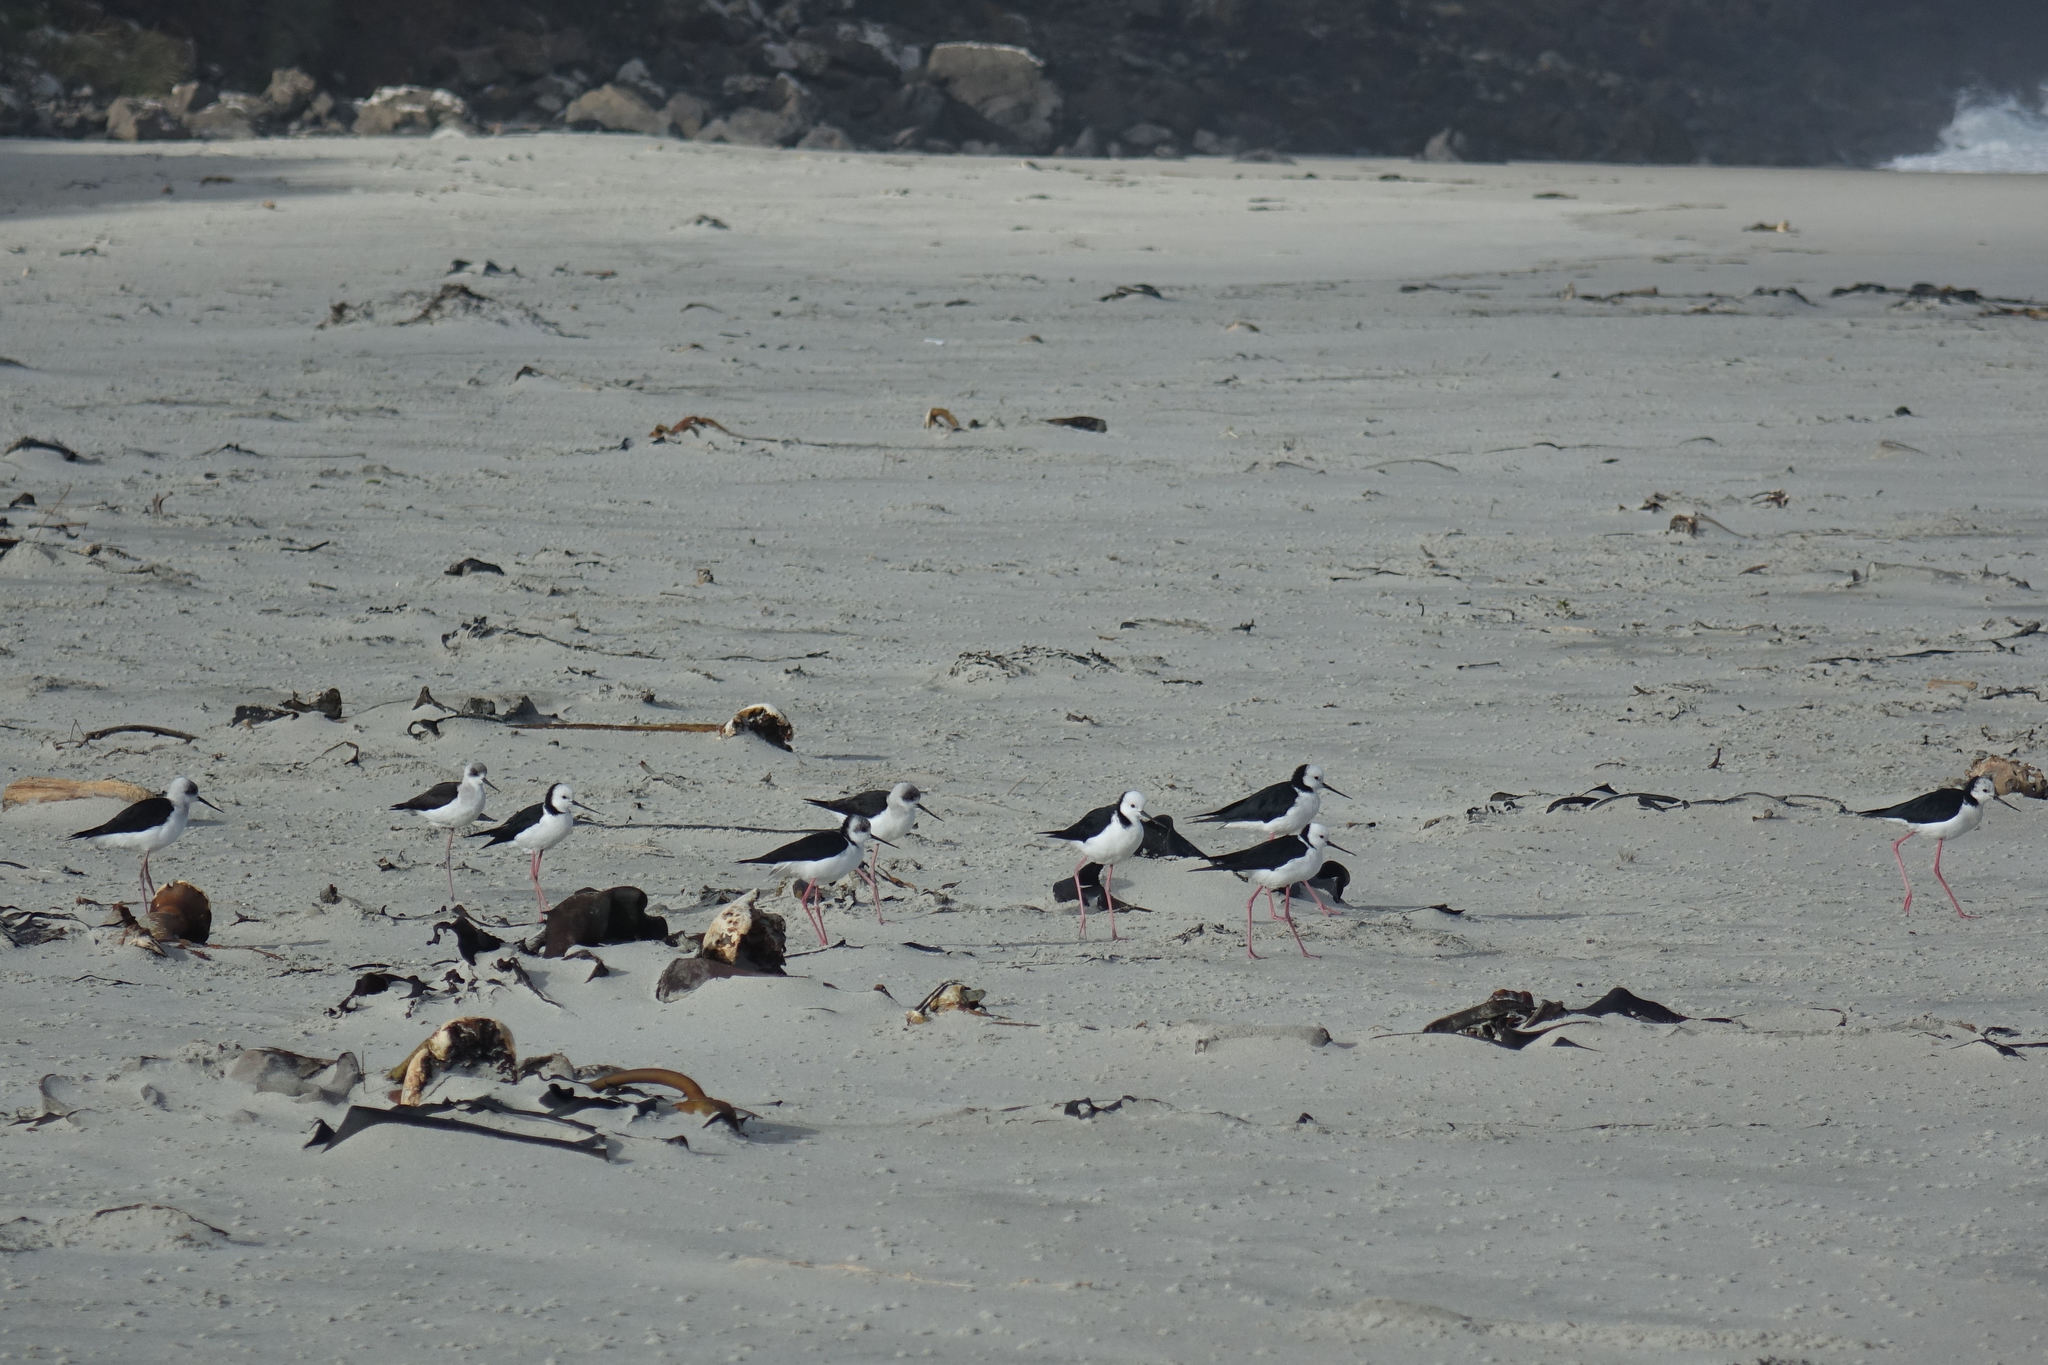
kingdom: Animalia
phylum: Chordata
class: Aves
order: Charadriiformes
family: Recurvirostridae
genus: Himantopus
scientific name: Himantopus leucocephalus
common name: White-headed stilt
